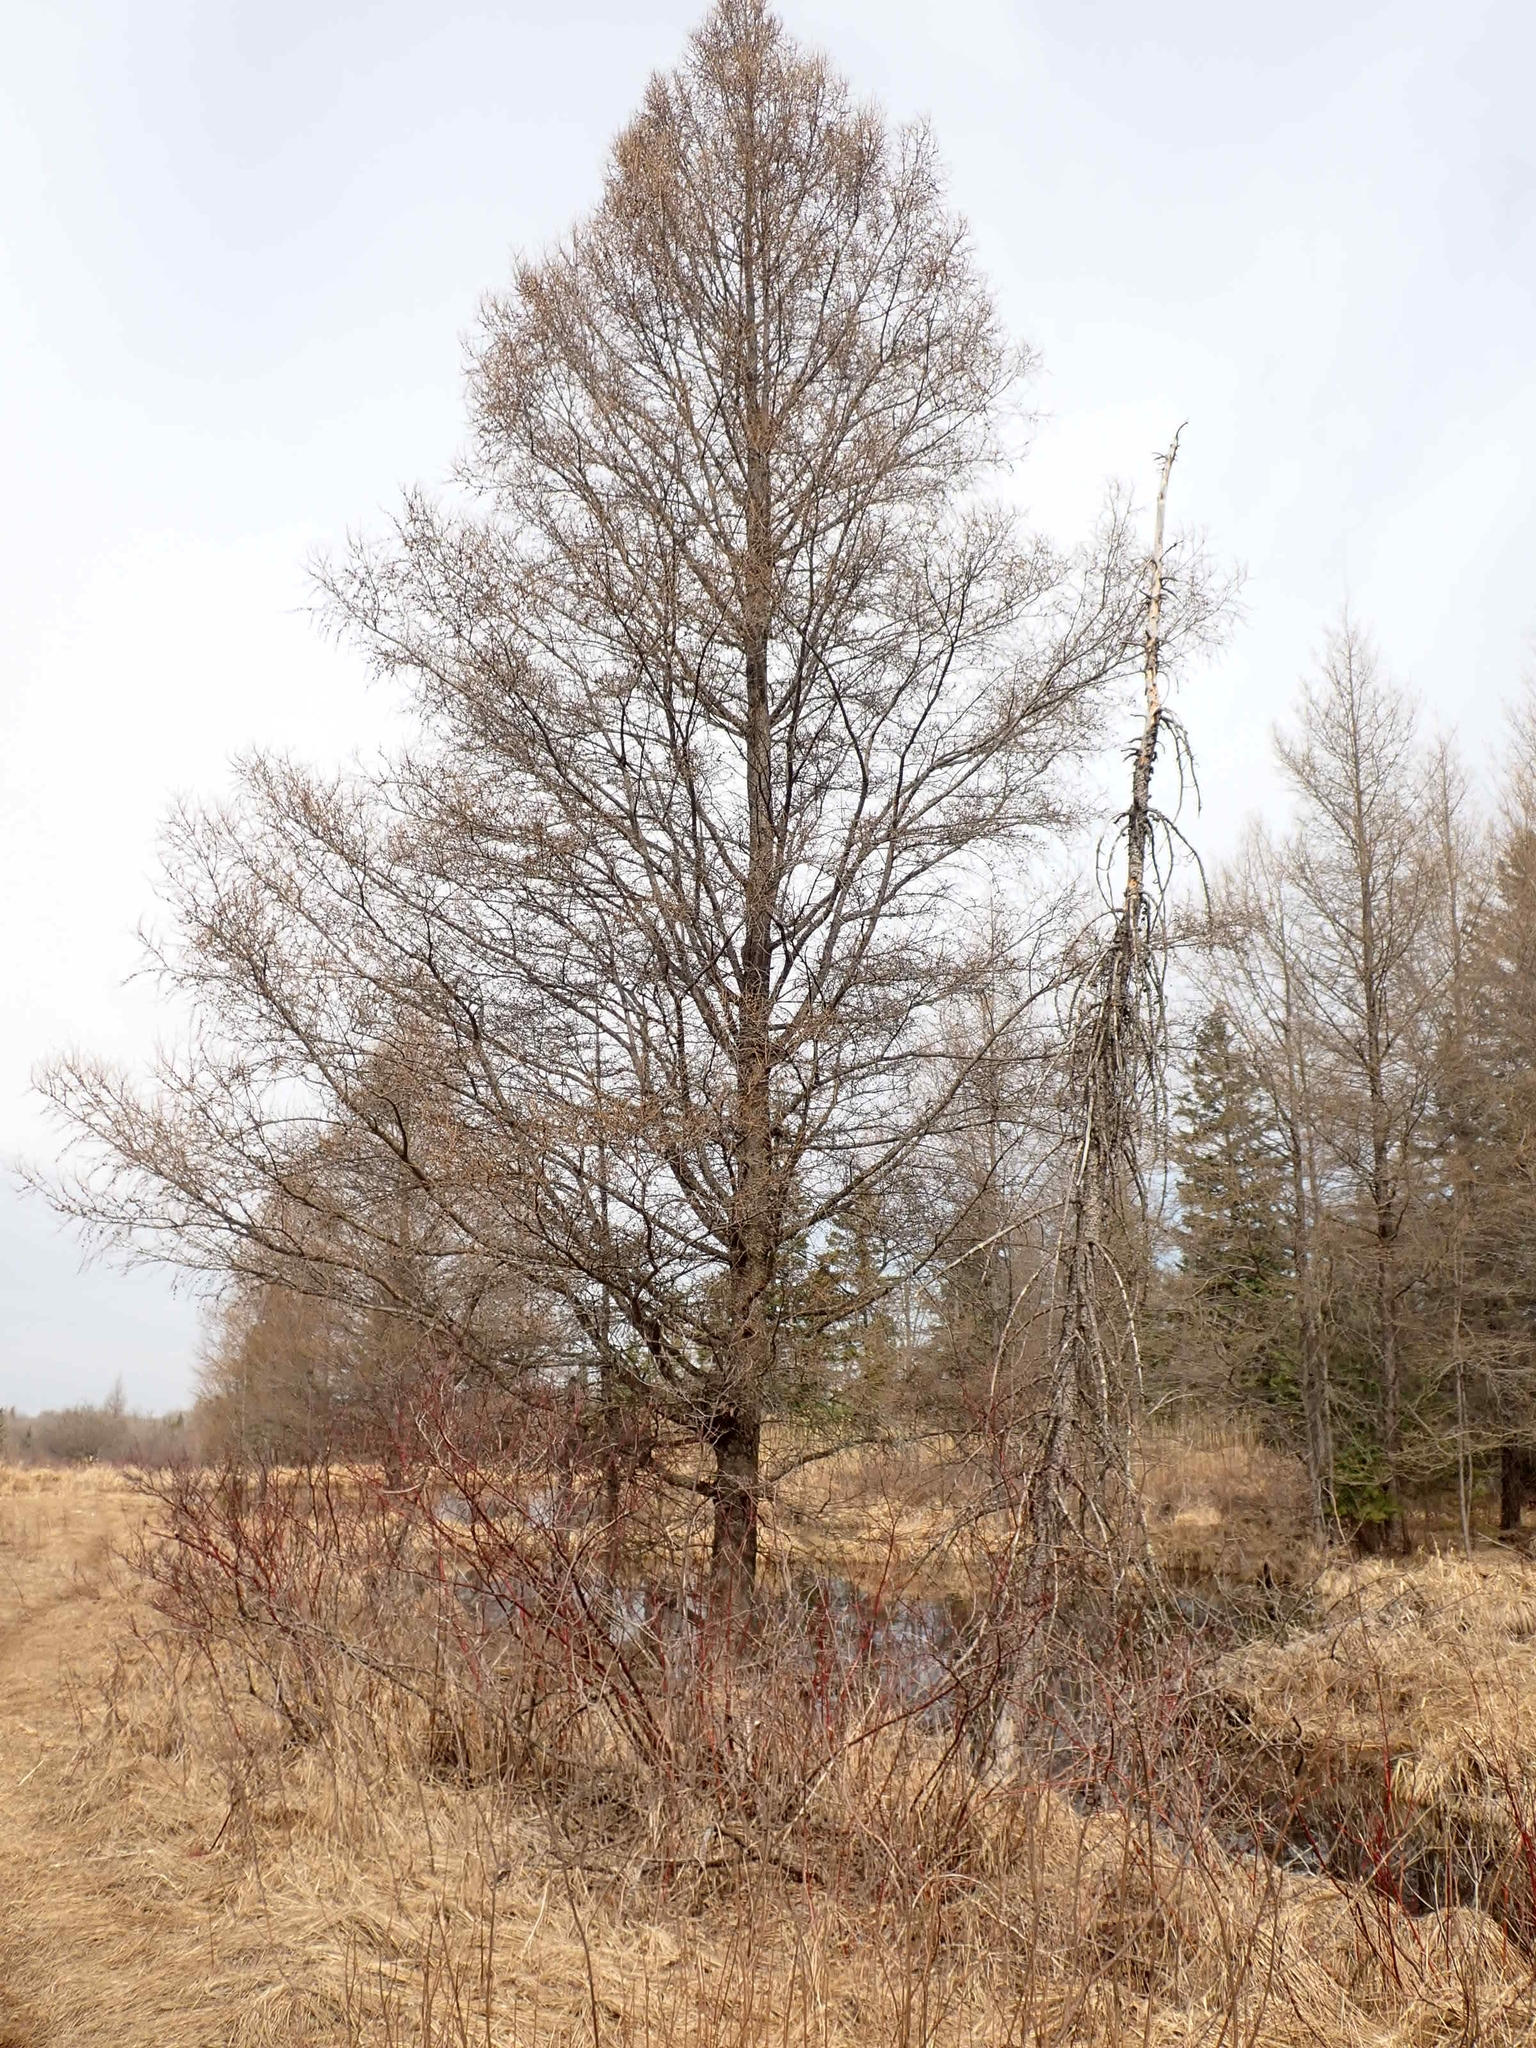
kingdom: Plantae
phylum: Tracheophyta
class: Pinopsida
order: Pinales
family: Pinaceae
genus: Larix
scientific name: Larix laricina
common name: American larch
